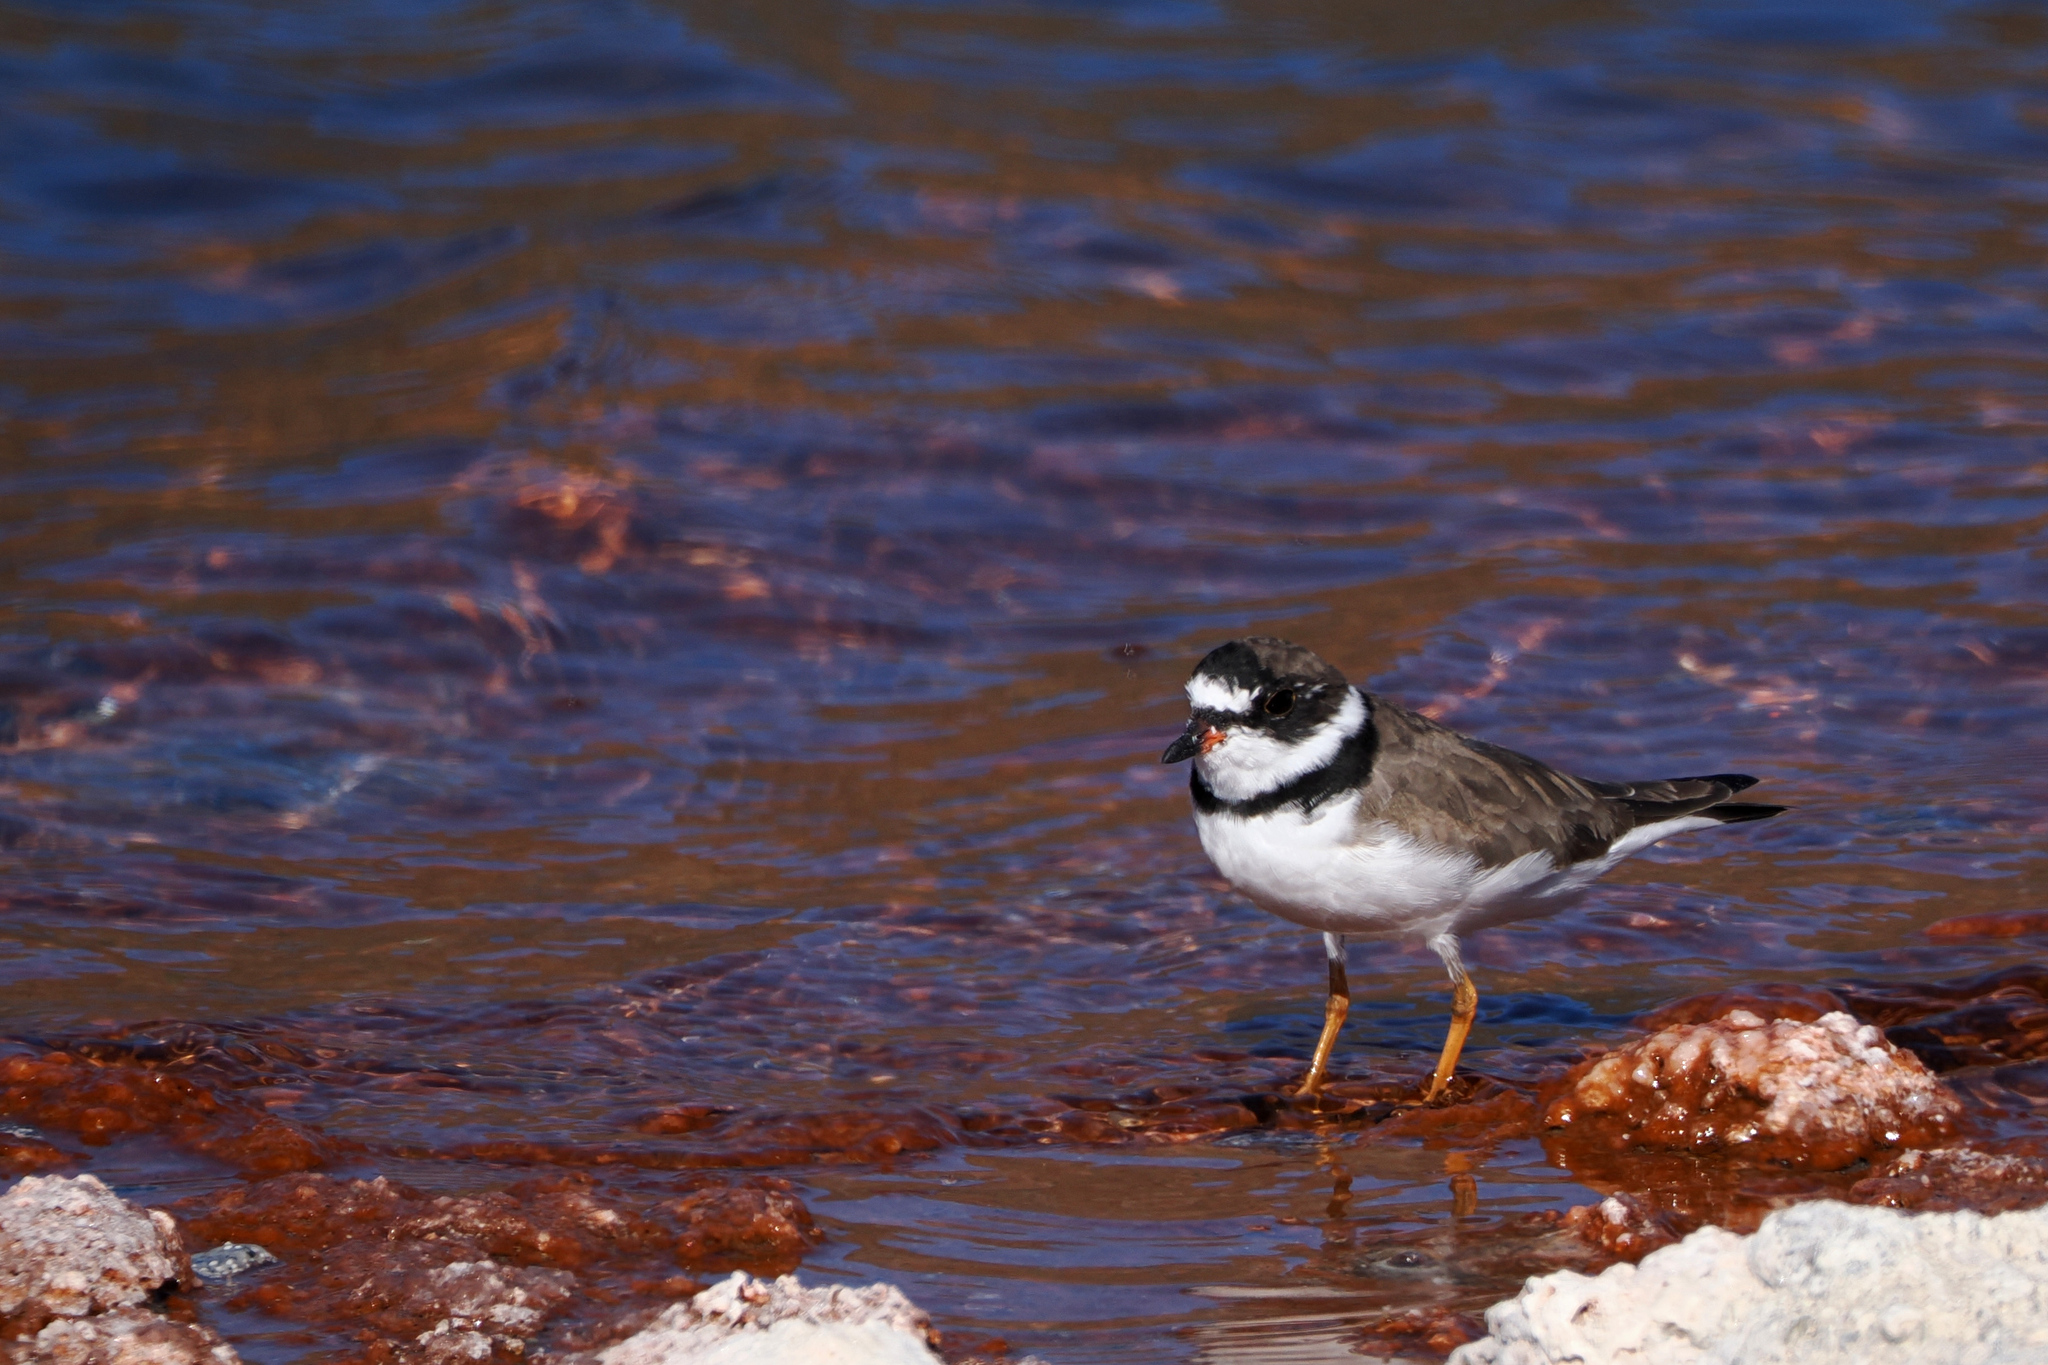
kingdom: Animalia
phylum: Chordata
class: Aves
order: Charadriiformes
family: Charadriidae
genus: Charadrius
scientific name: Charadrius semipalmatus
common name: Semipalmated plover
